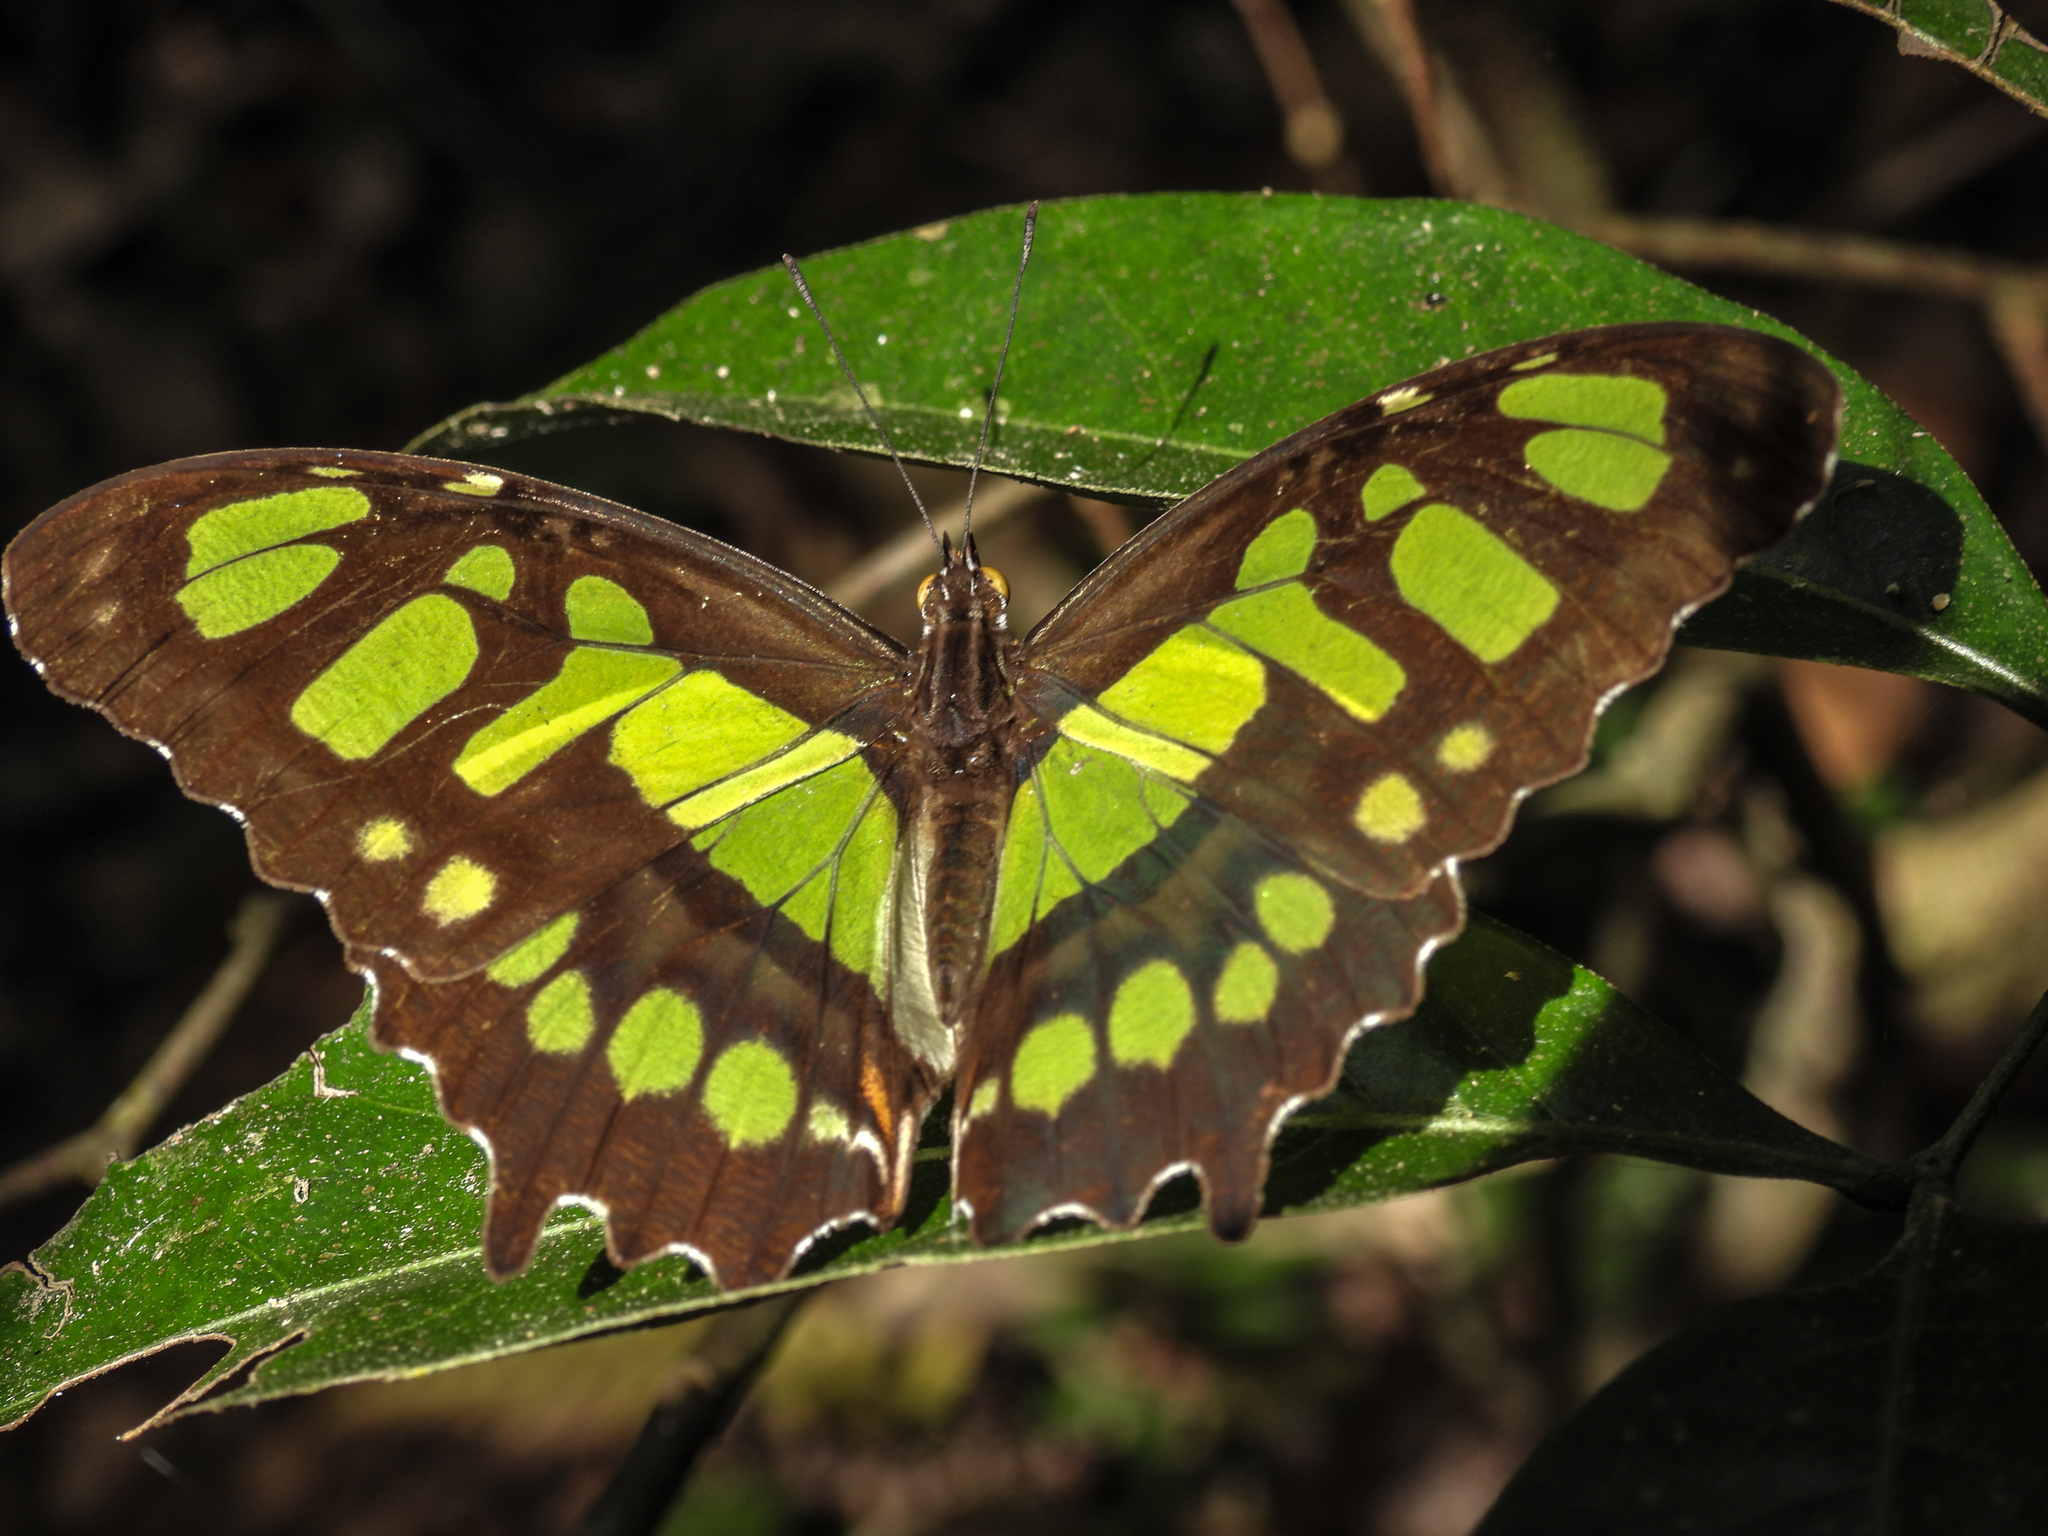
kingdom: Animalia
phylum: Arthropoda
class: Insecta
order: Lepidoptera
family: Nymphalidae
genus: Siproeta
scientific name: Siproeta stelenes
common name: Malachite
